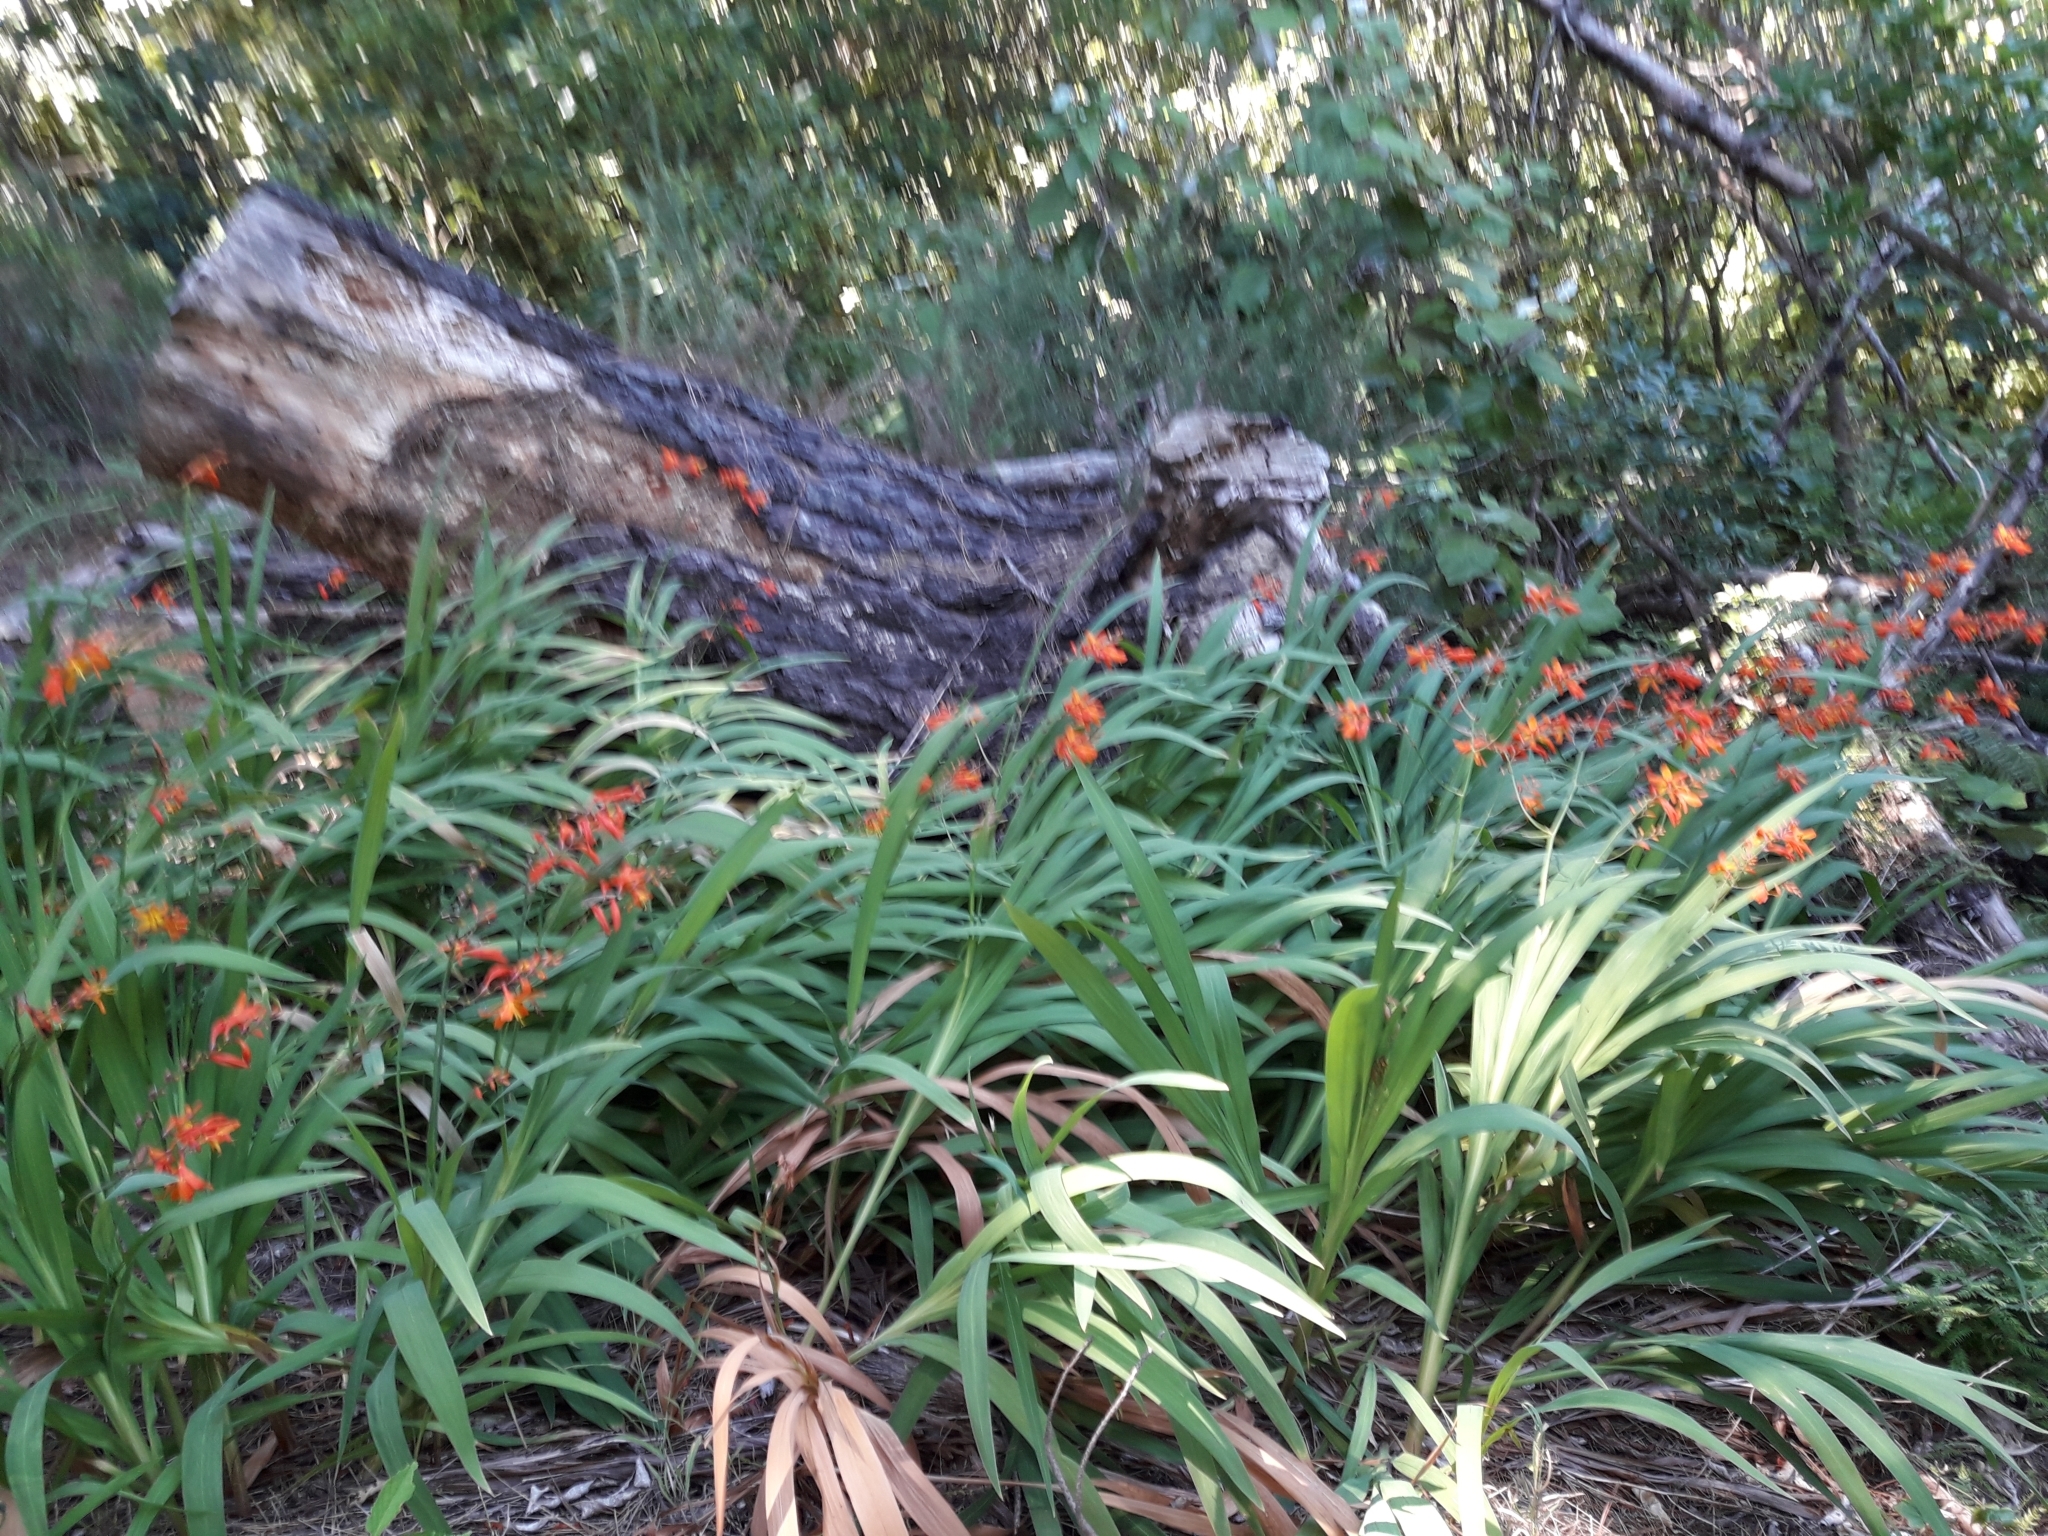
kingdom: Plantae
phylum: Tracheophyta
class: Liliopsida
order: Asparagales
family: Iridaceae
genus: Crocosmia
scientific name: Crocosmia crocosmiiflora
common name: Montbretia
